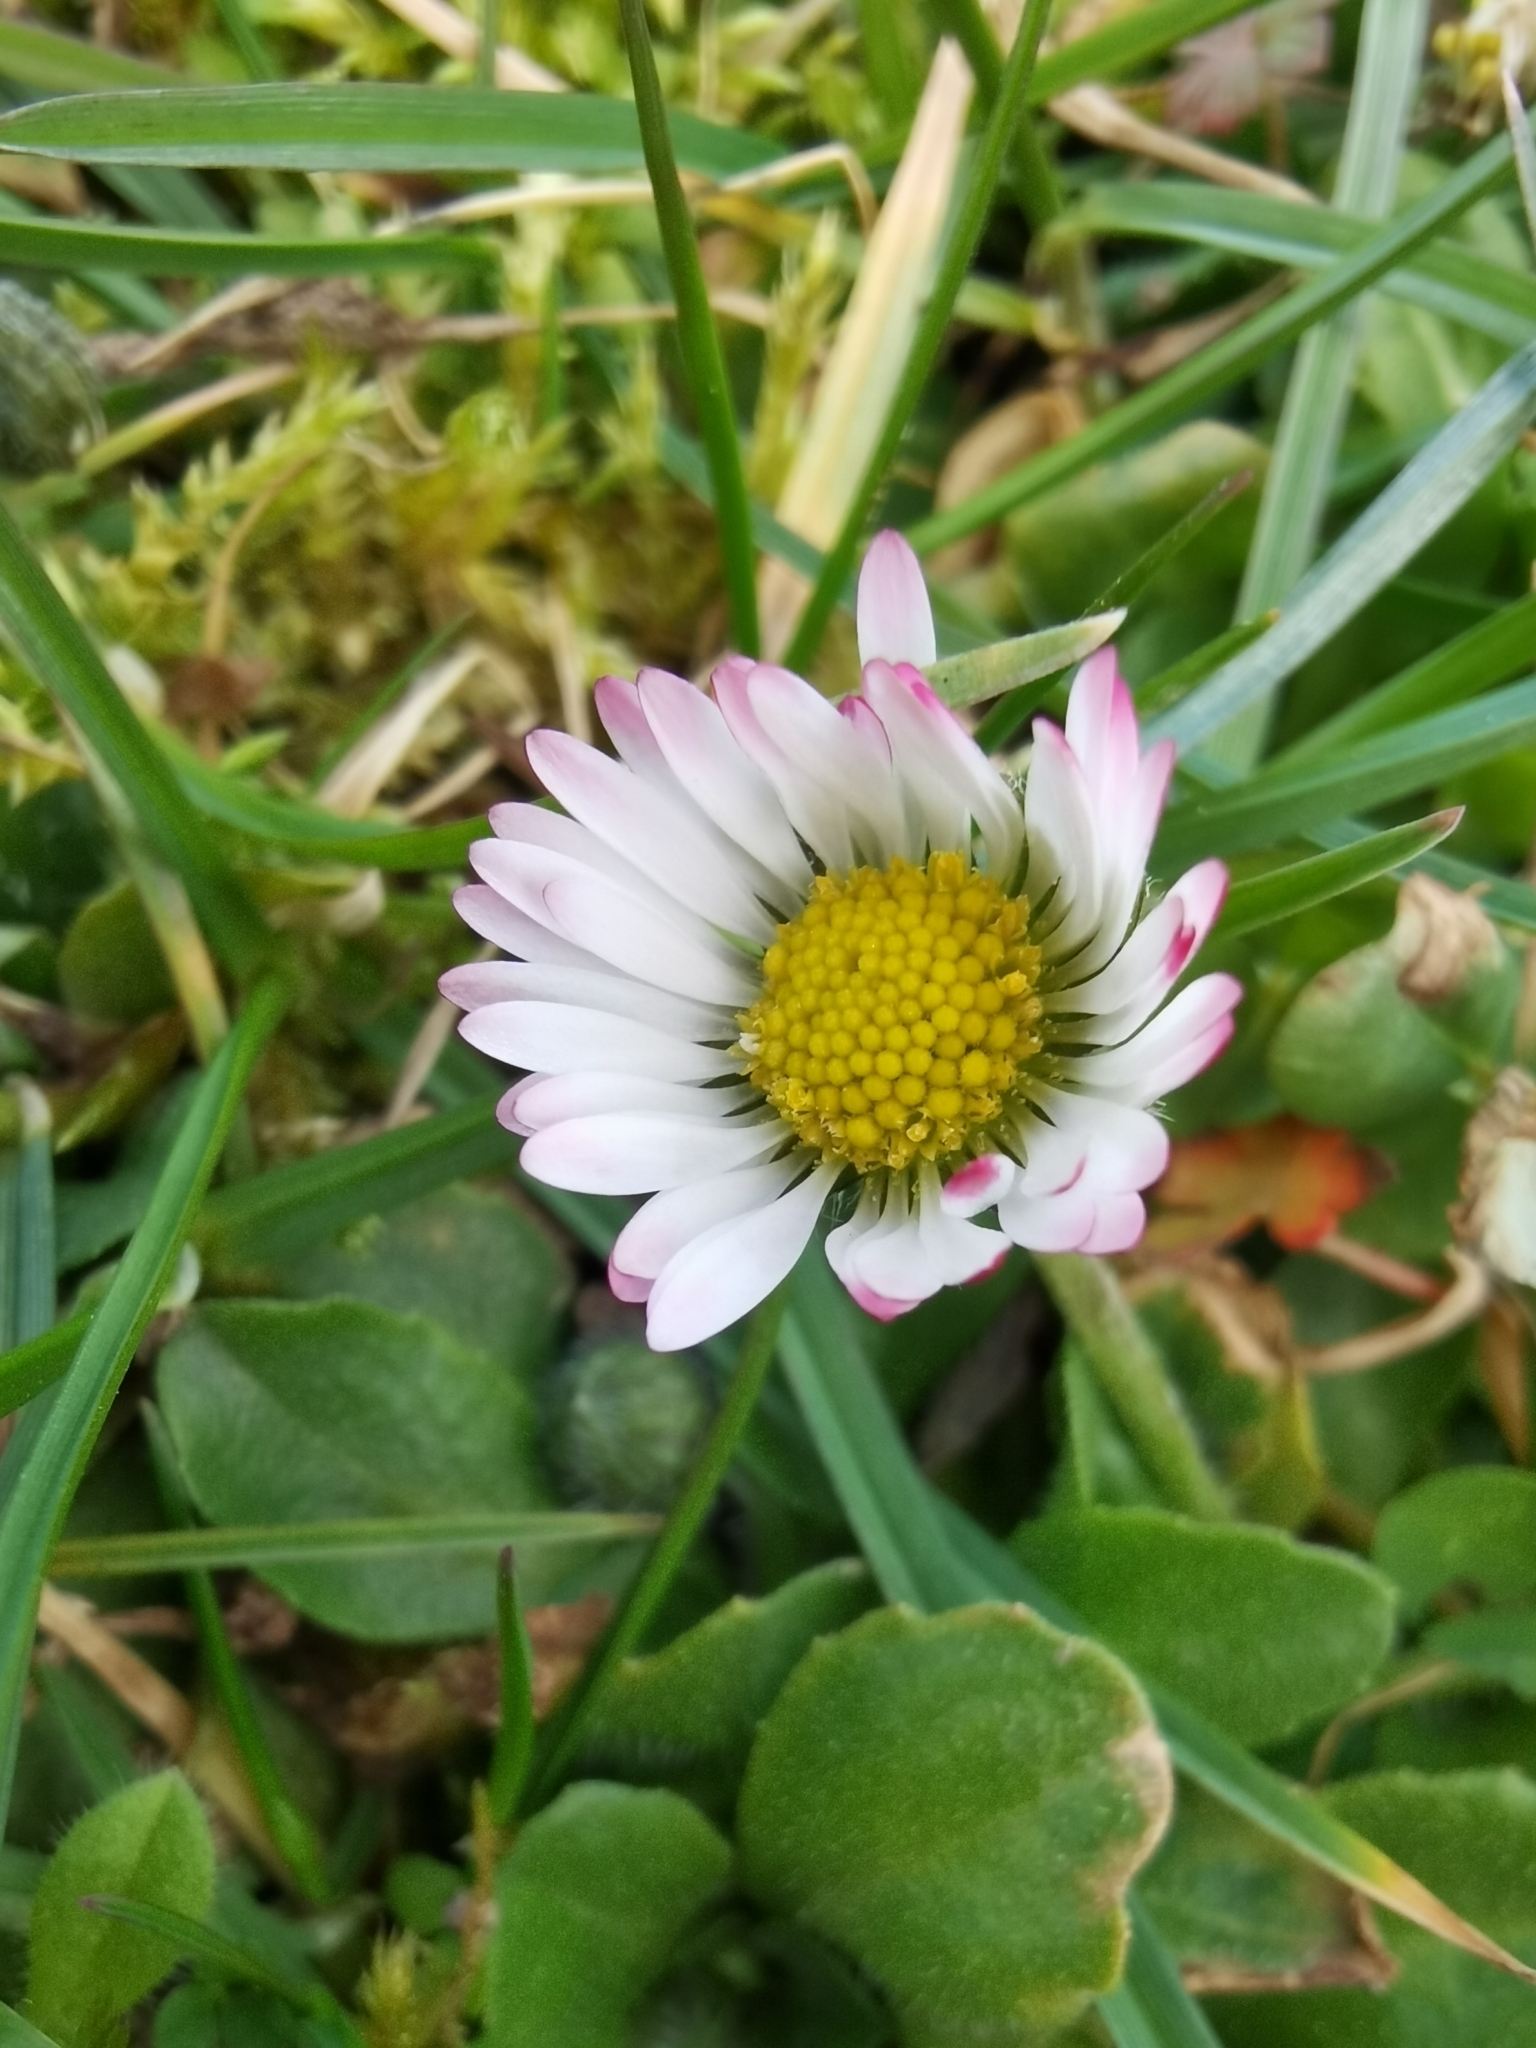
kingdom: Plantae
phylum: Tracheophyta
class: Magnoliopsida
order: Asterales
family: Asteraceae
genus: Bellis
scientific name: Bellis perennis
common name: Lawndaisy
